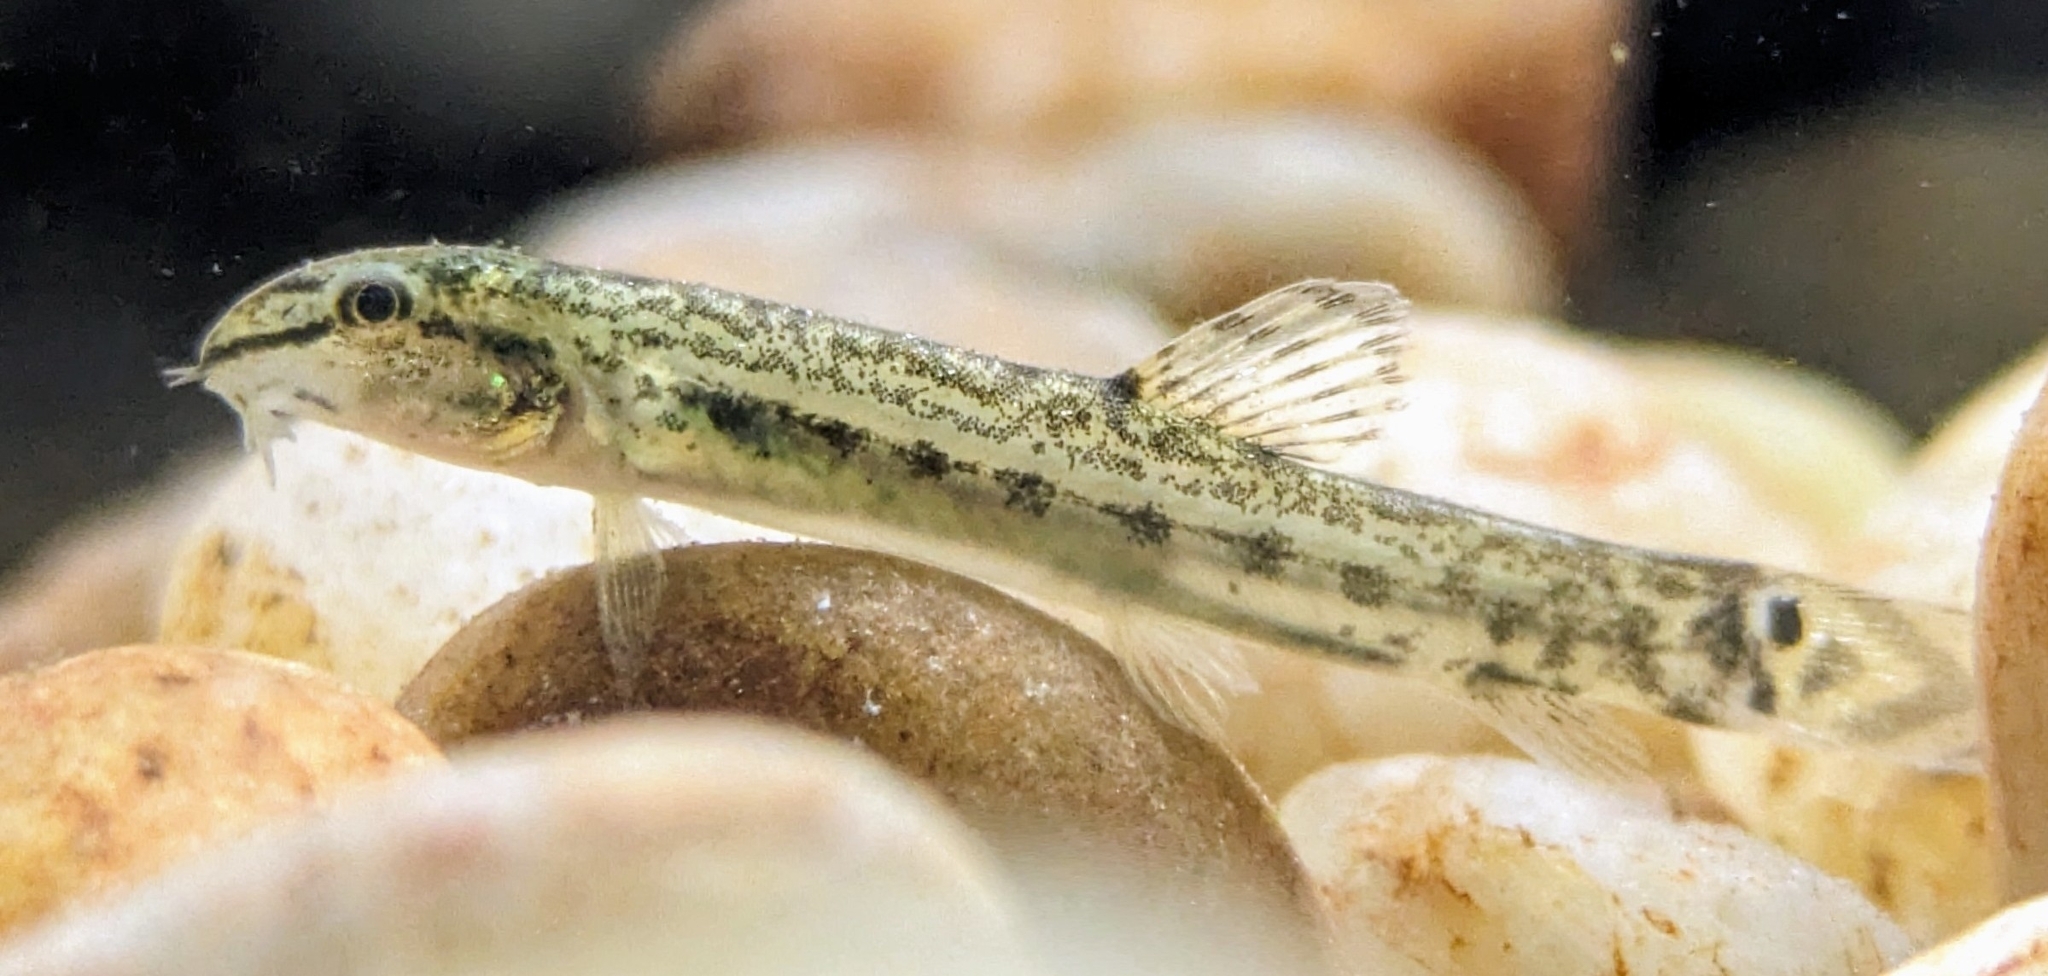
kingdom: Animalia
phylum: Chordata
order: Cypriniformes
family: Cobitidae
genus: Lepidocephalichthys
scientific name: Lepidocephalichthys thermalis
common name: Common spiny loach
